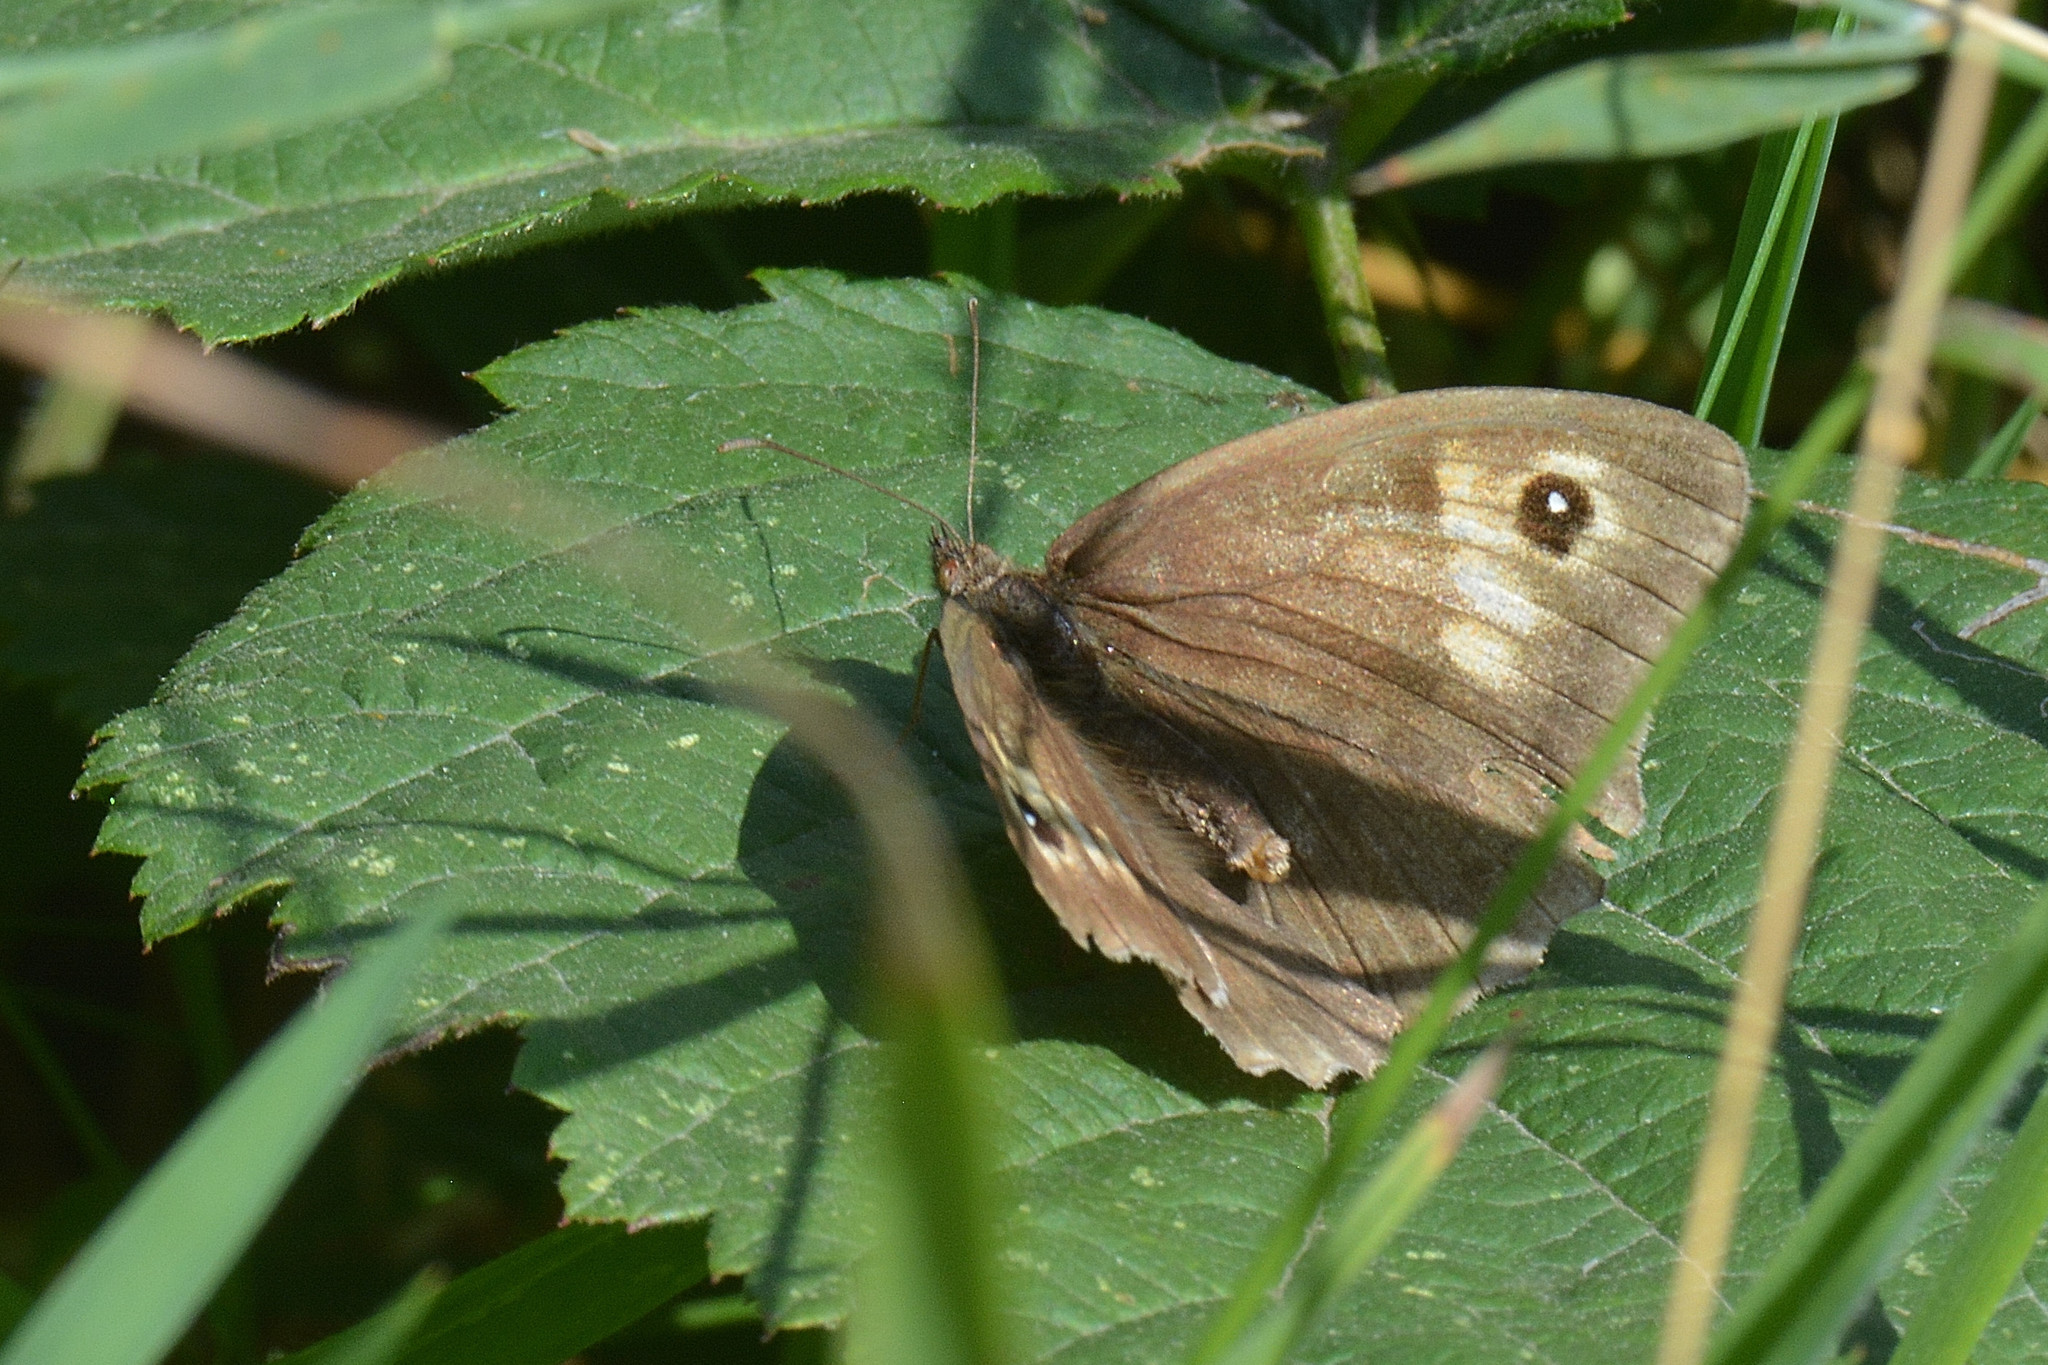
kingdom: Animalia
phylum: Arthropoda
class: Insecta
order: Lepidoptera
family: Nymphalidae
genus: Maniola
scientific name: Maniola jurtina
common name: Meadow brown
